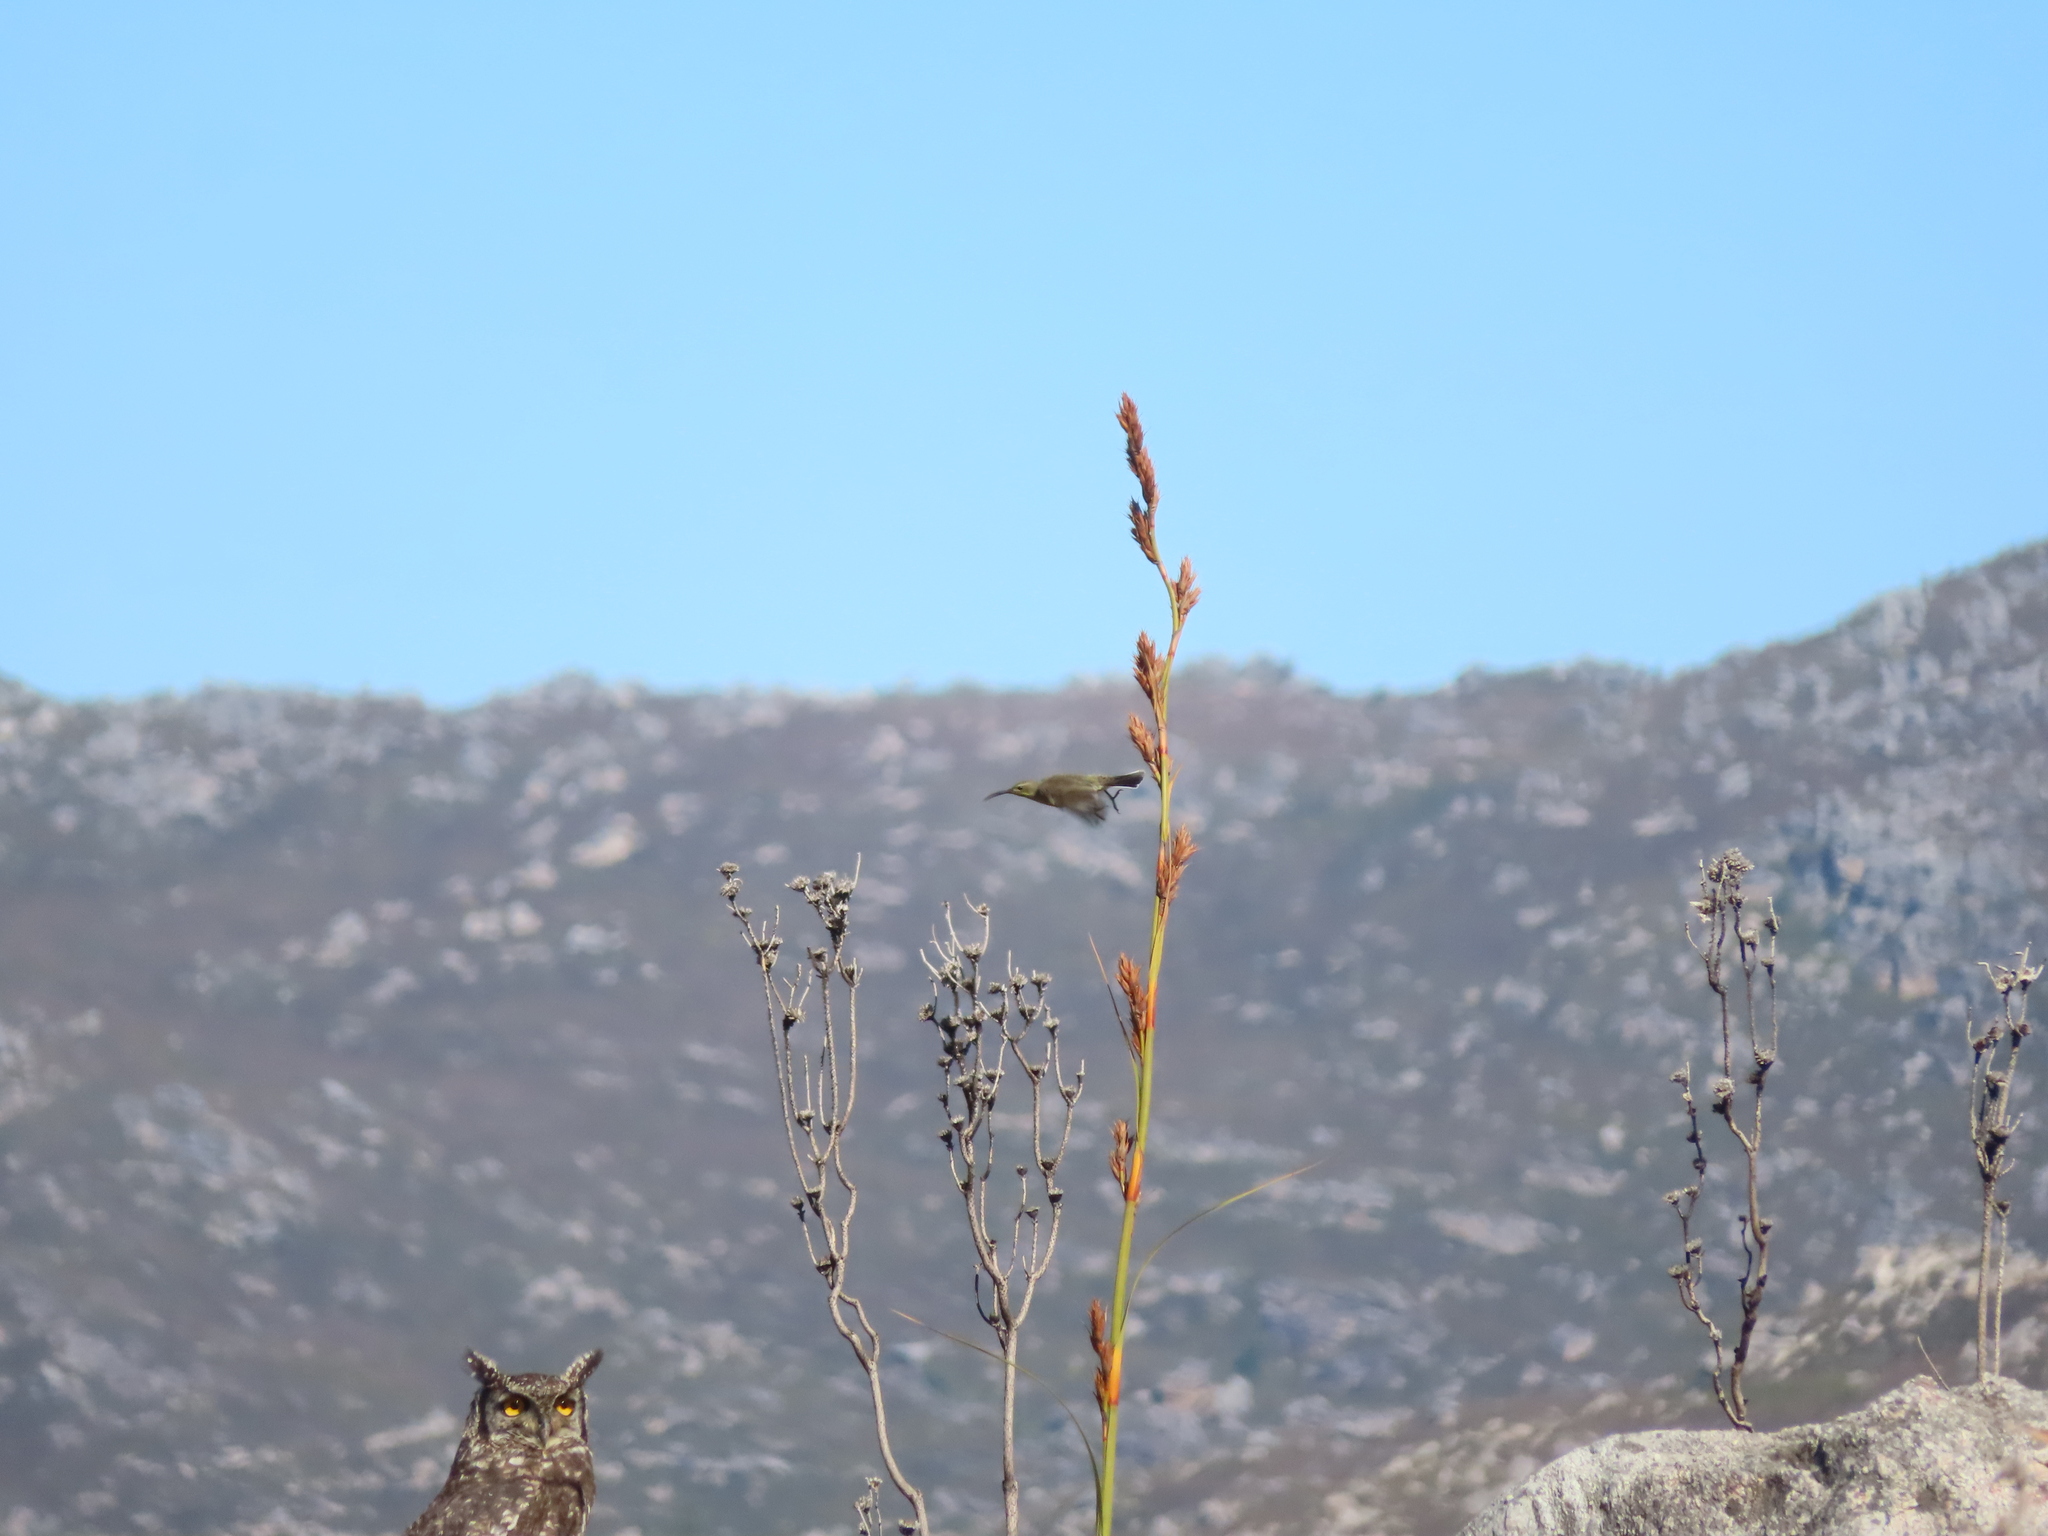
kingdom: Animalia
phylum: Chordata
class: Aves
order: Passeriformes
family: Nectariniidae
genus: Nectarinia
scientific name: Nectarinia famosa
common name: Malachite sunbird
